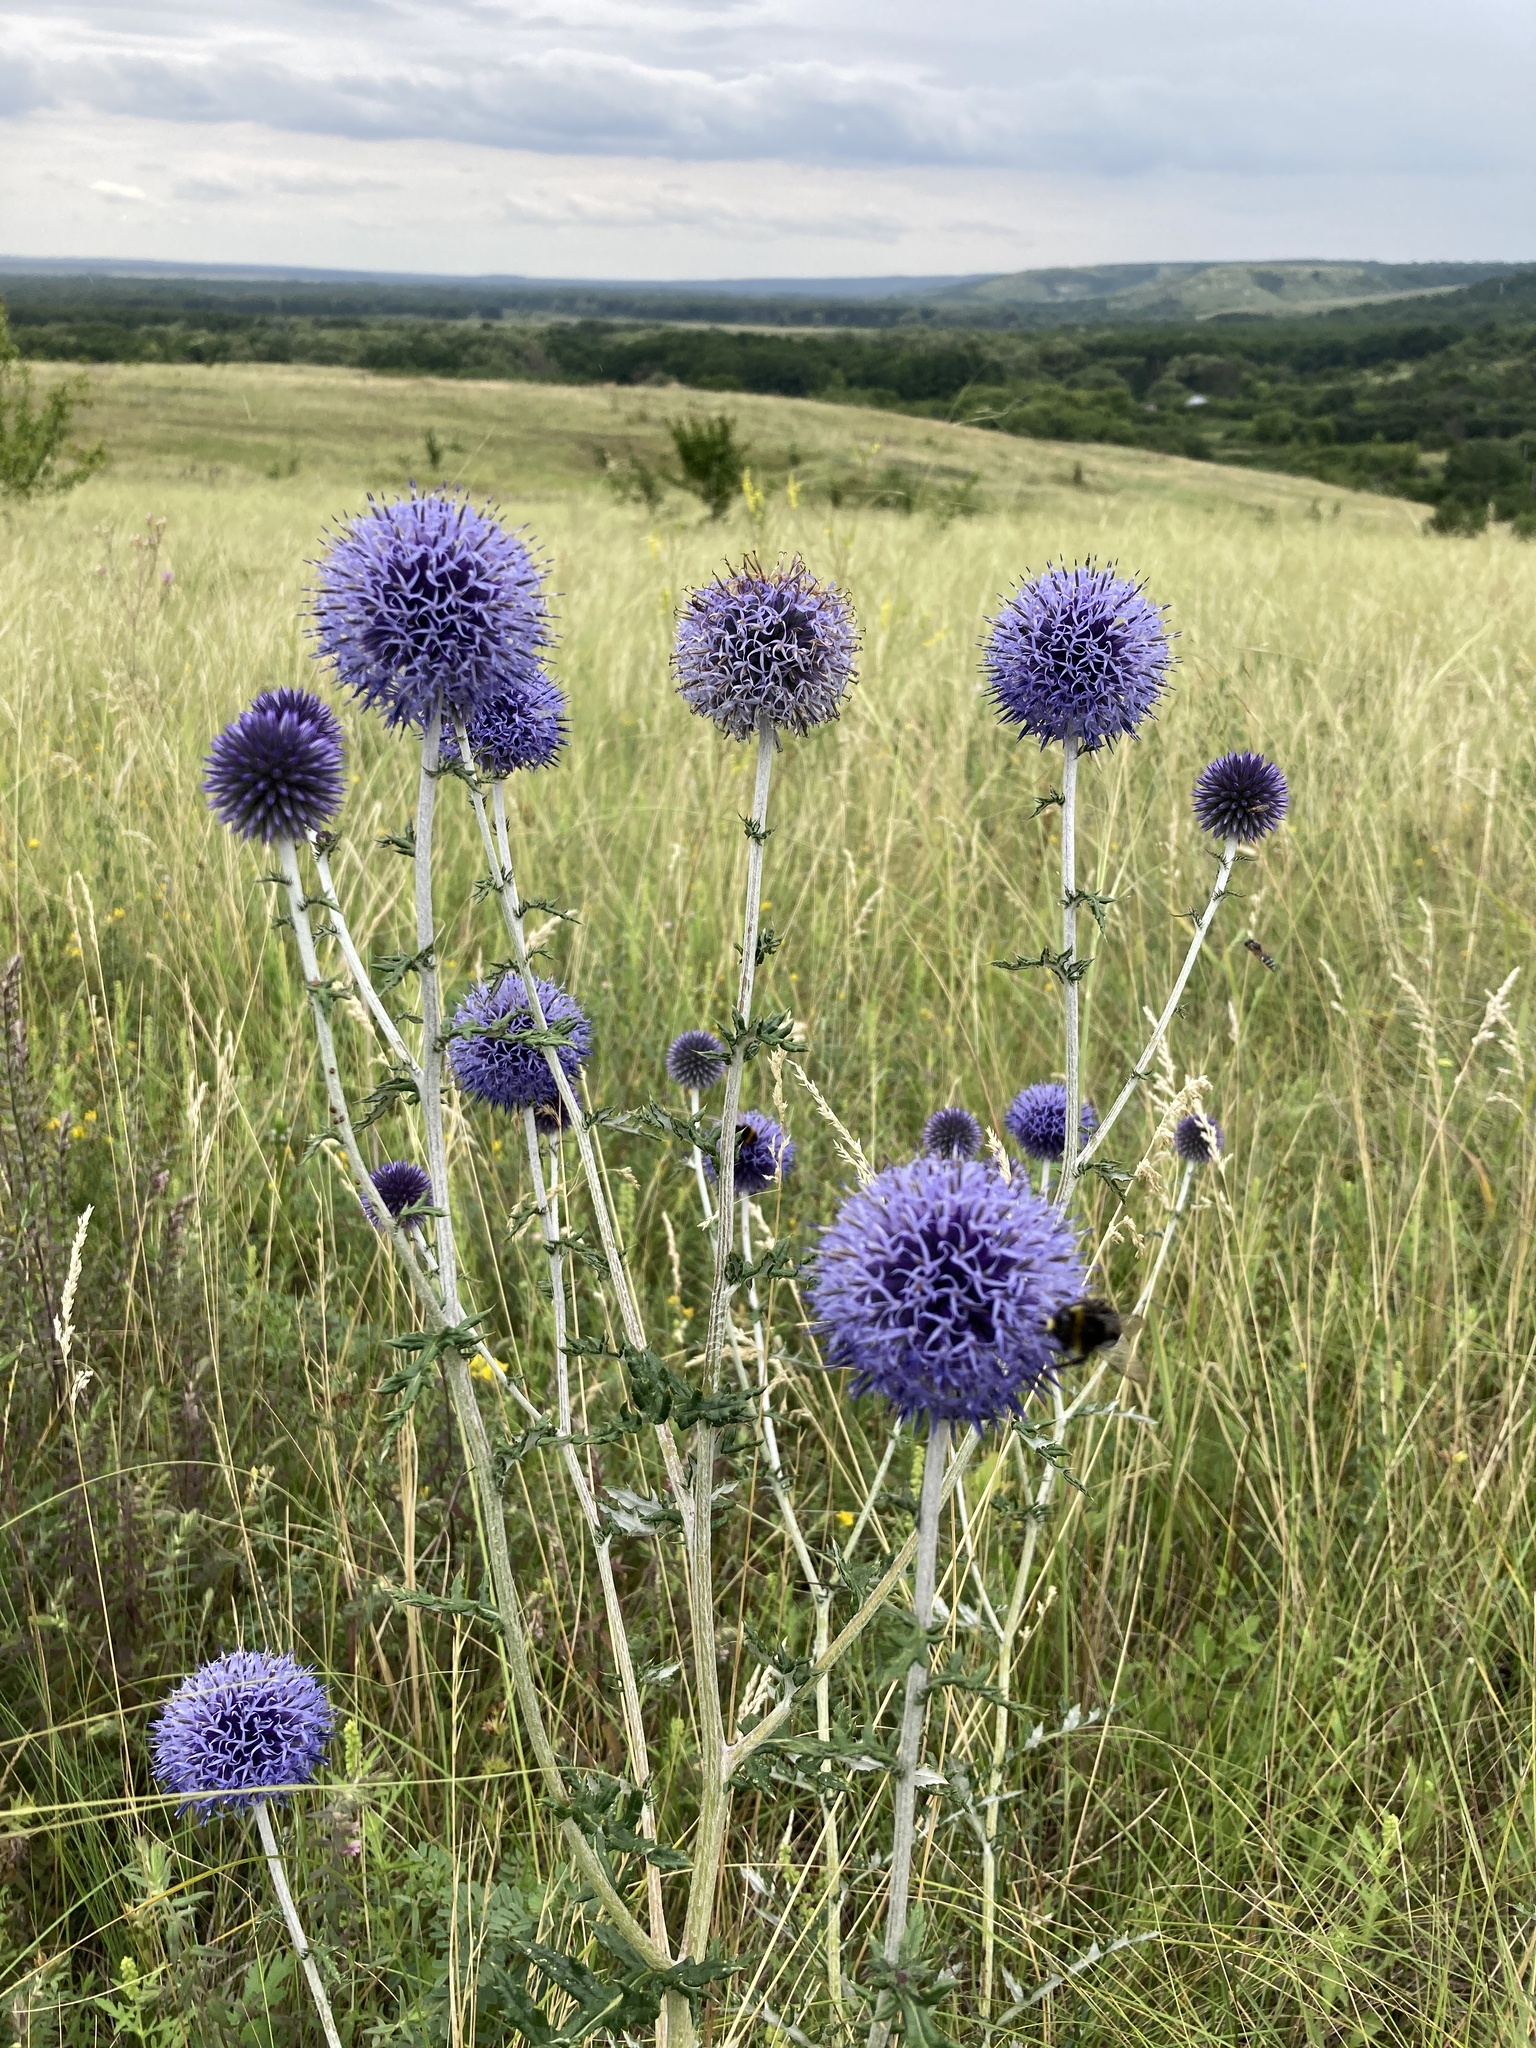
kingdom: Plantae
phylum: Tracheophyta
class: Magnoliopsida
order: Asterales
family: Asteraceae
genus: Echinops
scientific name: Echinops ritro
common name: Globe thistle
